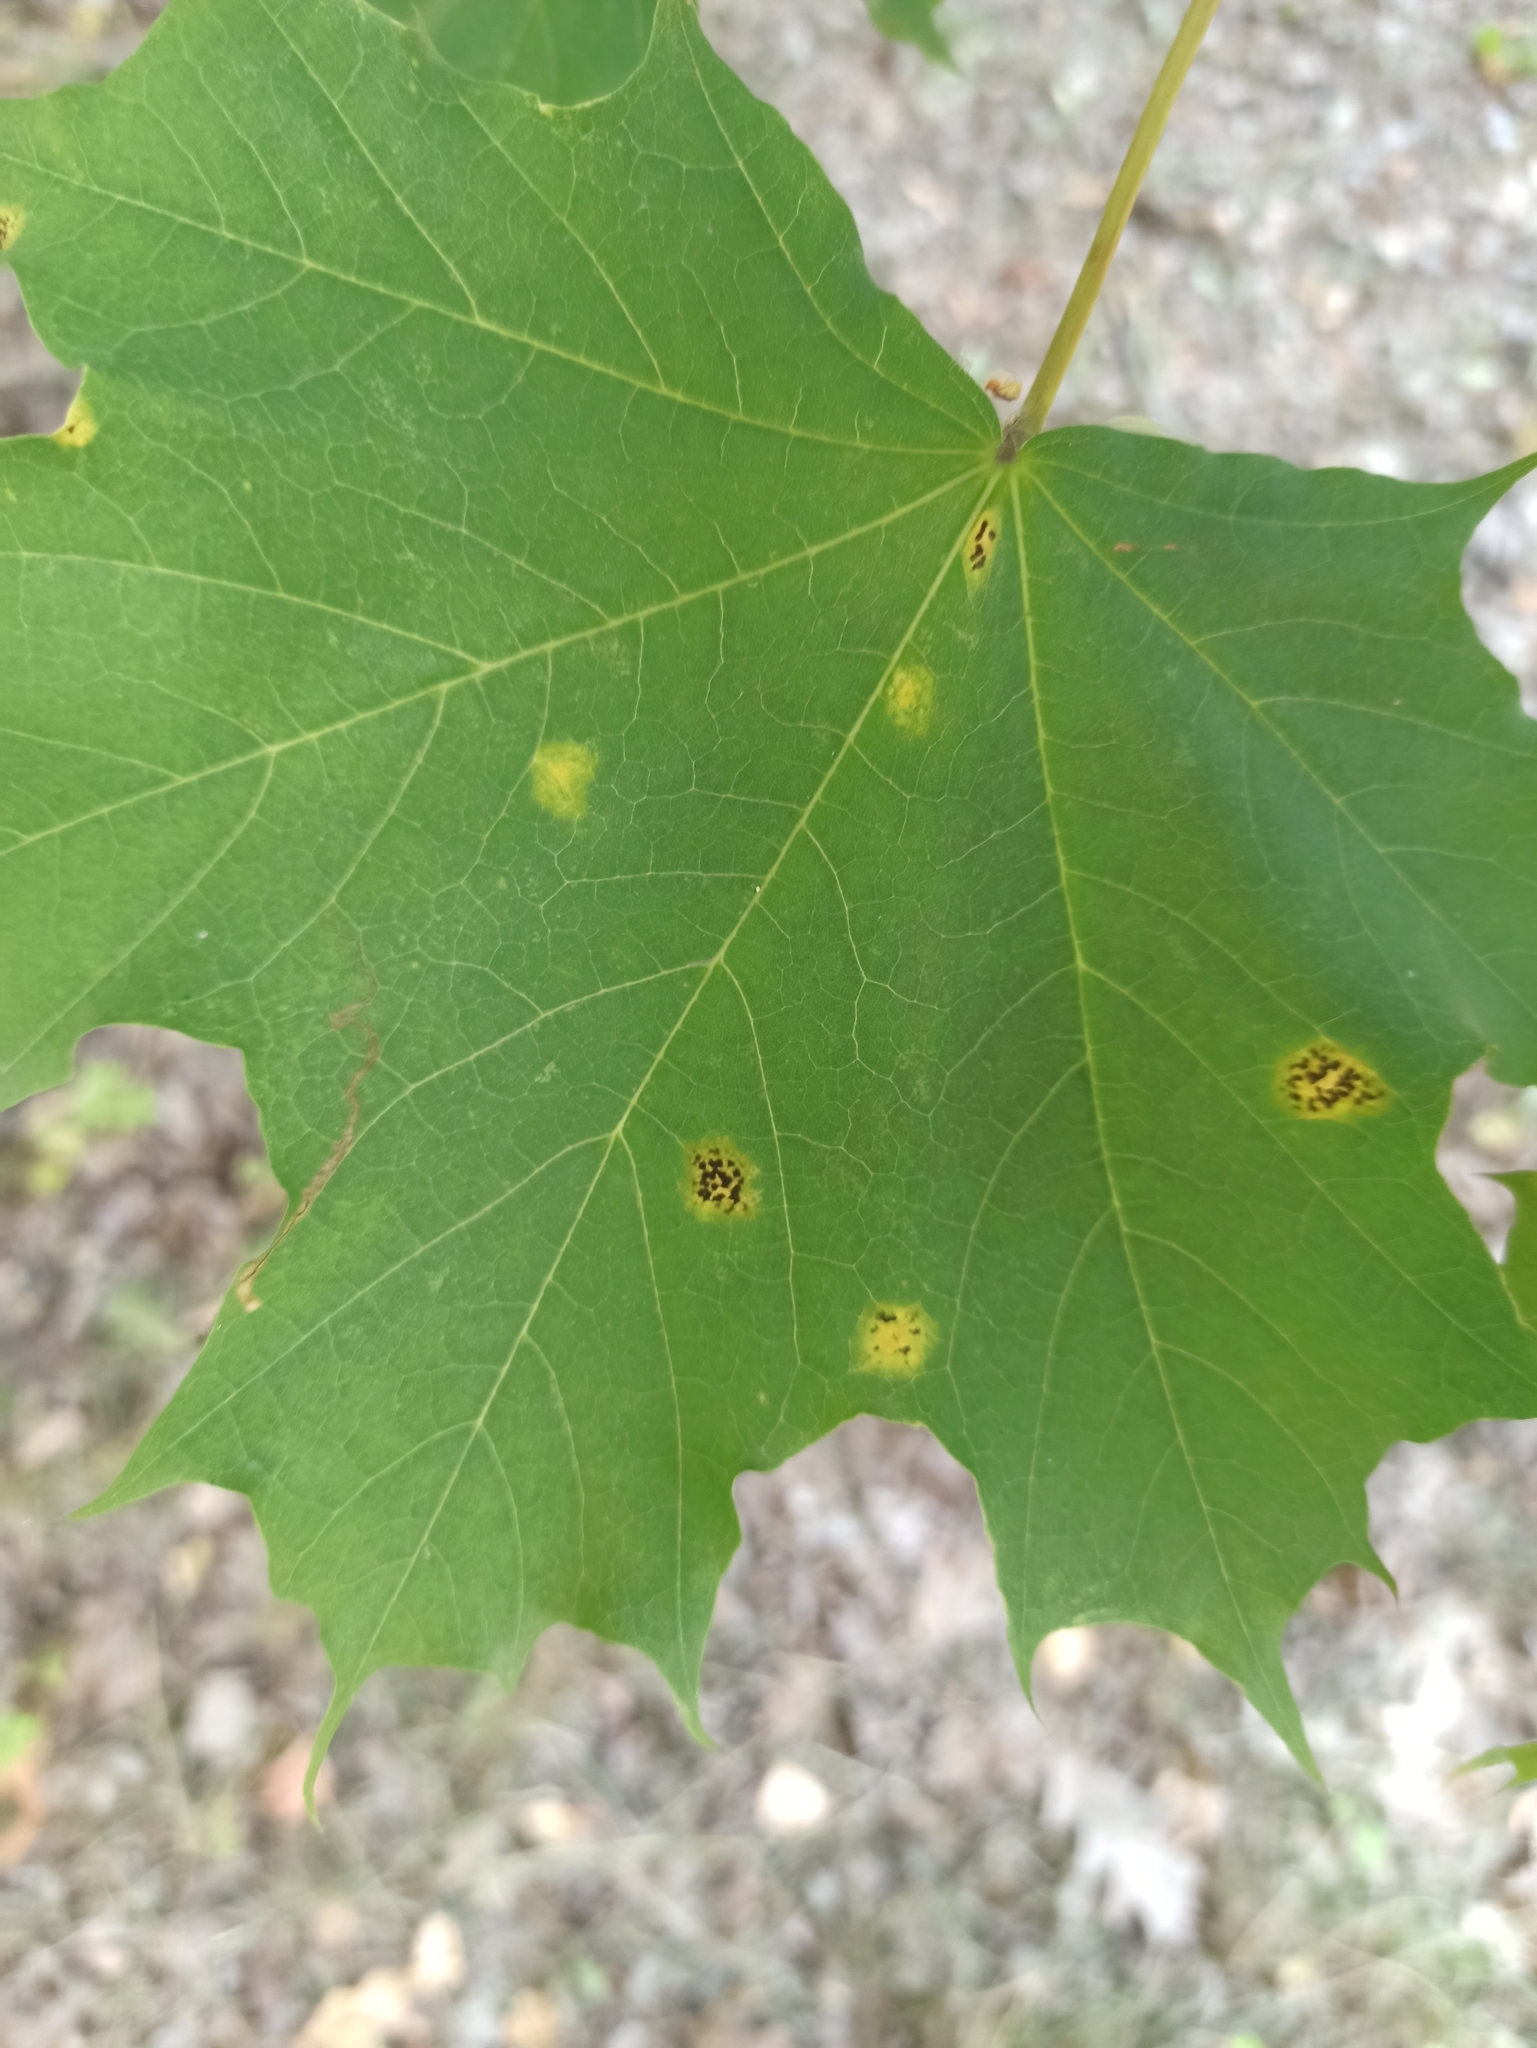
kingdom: Fungi
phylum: Ascomycota
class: Leotiomycetes
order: Rhytismatales
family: Rhytismataceae
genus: Rhytisma
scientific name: Rhytisma acerinum
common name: European tar spot
